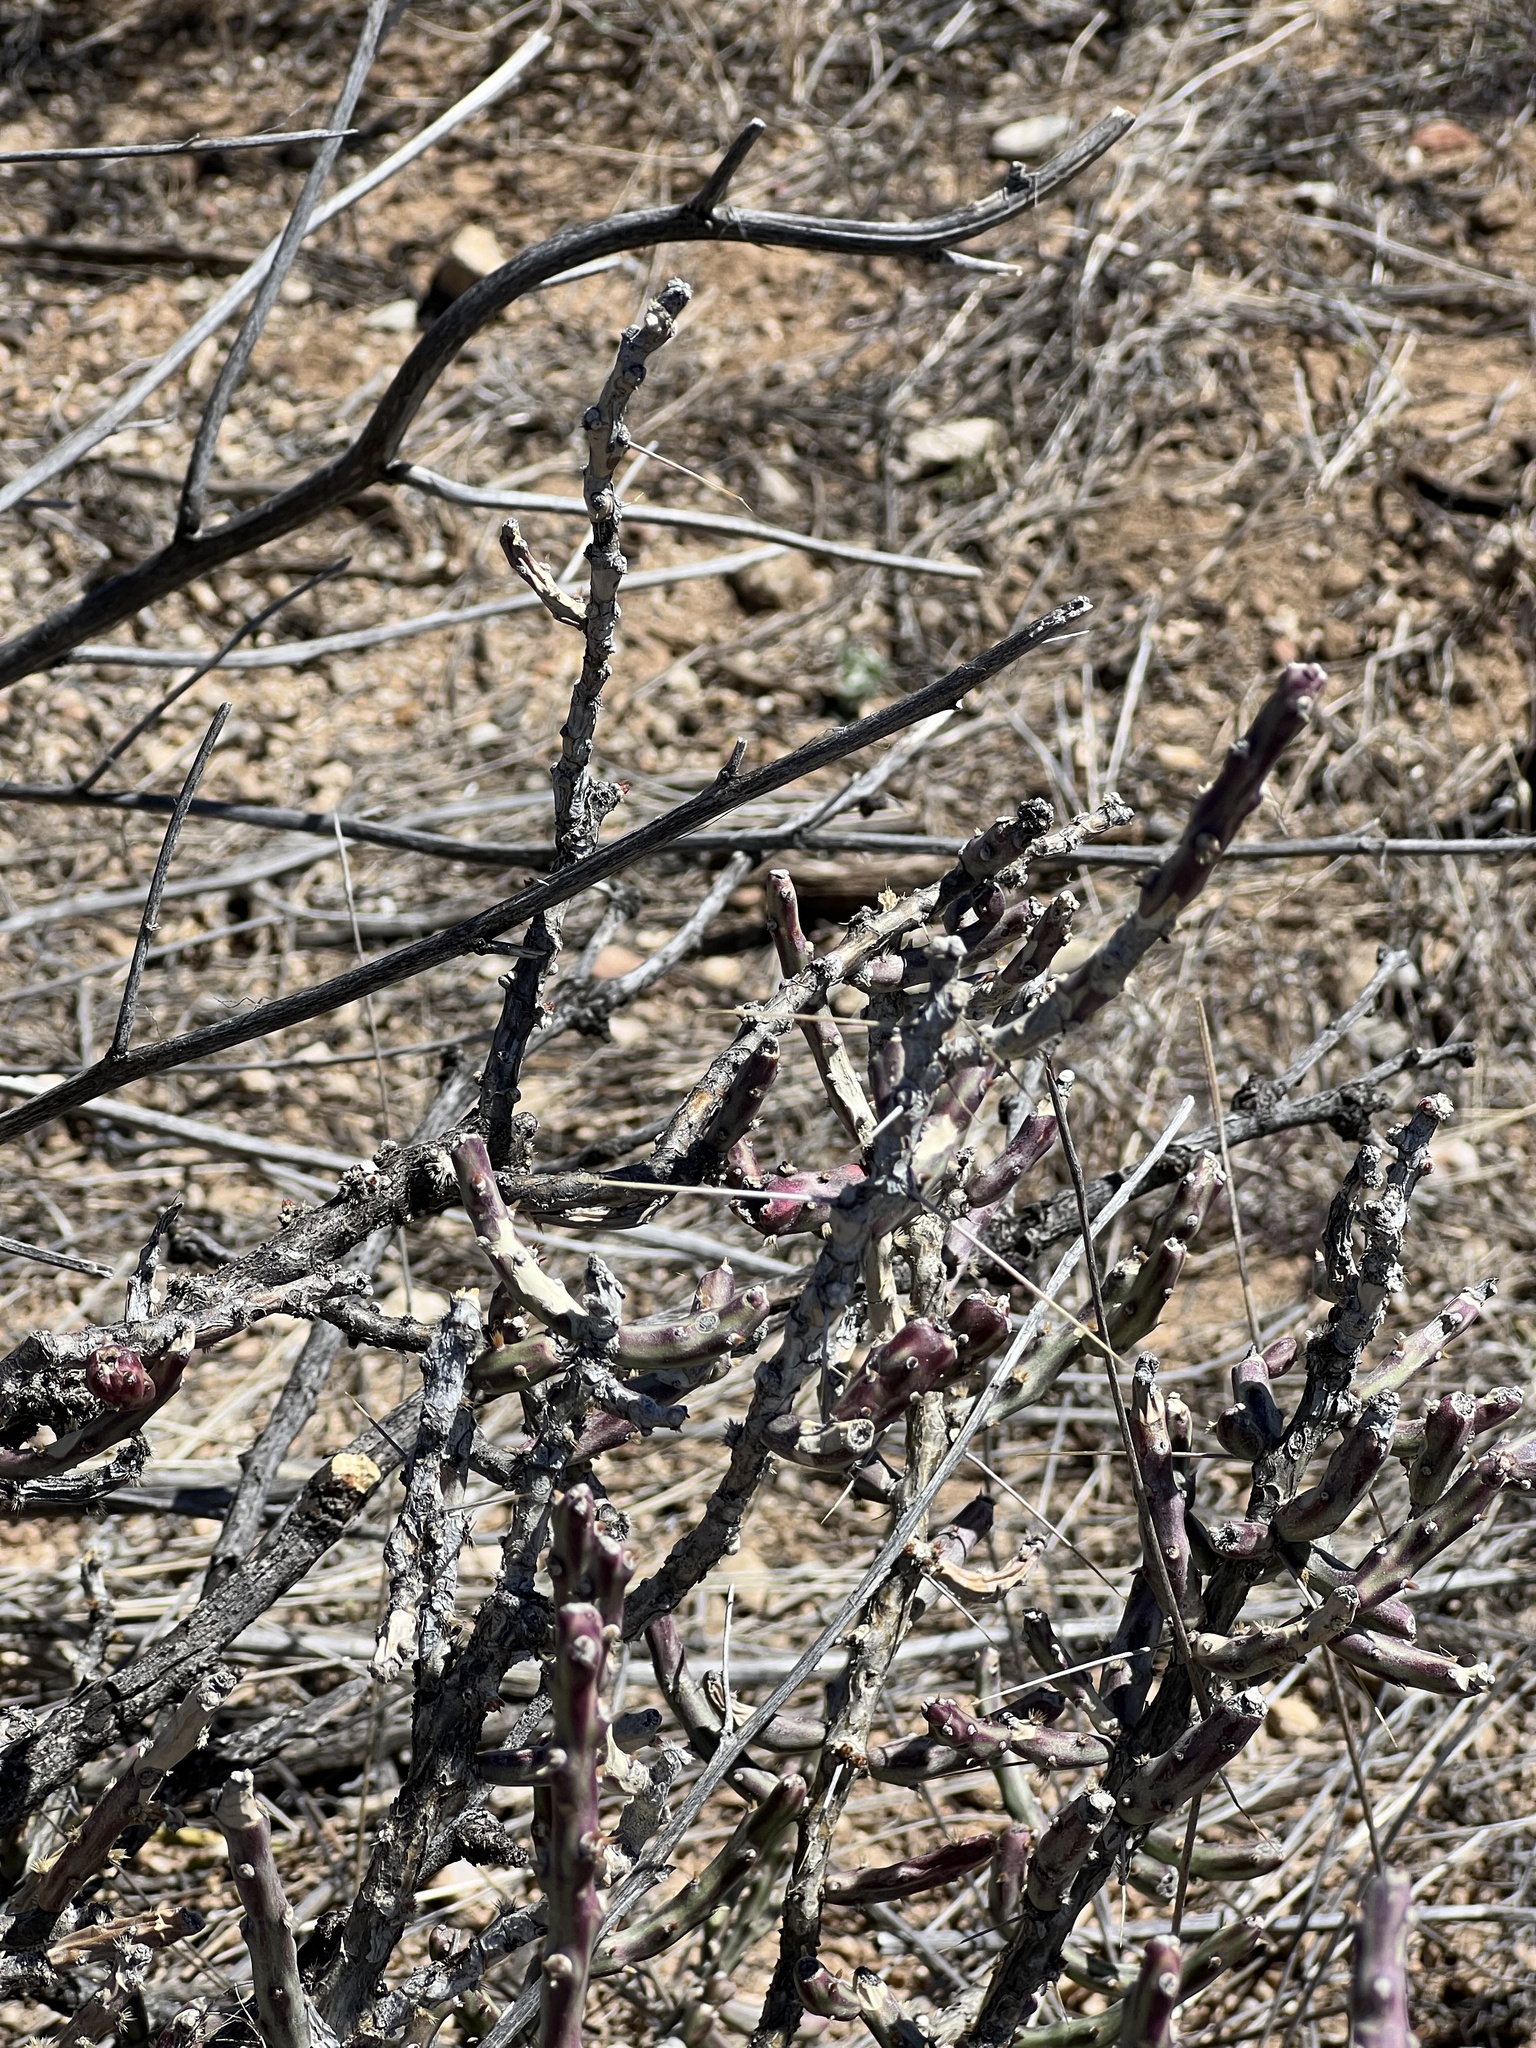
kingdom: Plantae
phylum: Tracheophyta
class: Magnoliopsida
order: Caryophyllales
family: Cactaceae
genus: Cylindropuntia
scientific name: Cylindropuntia leptocaulis
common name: Christmas cactus
